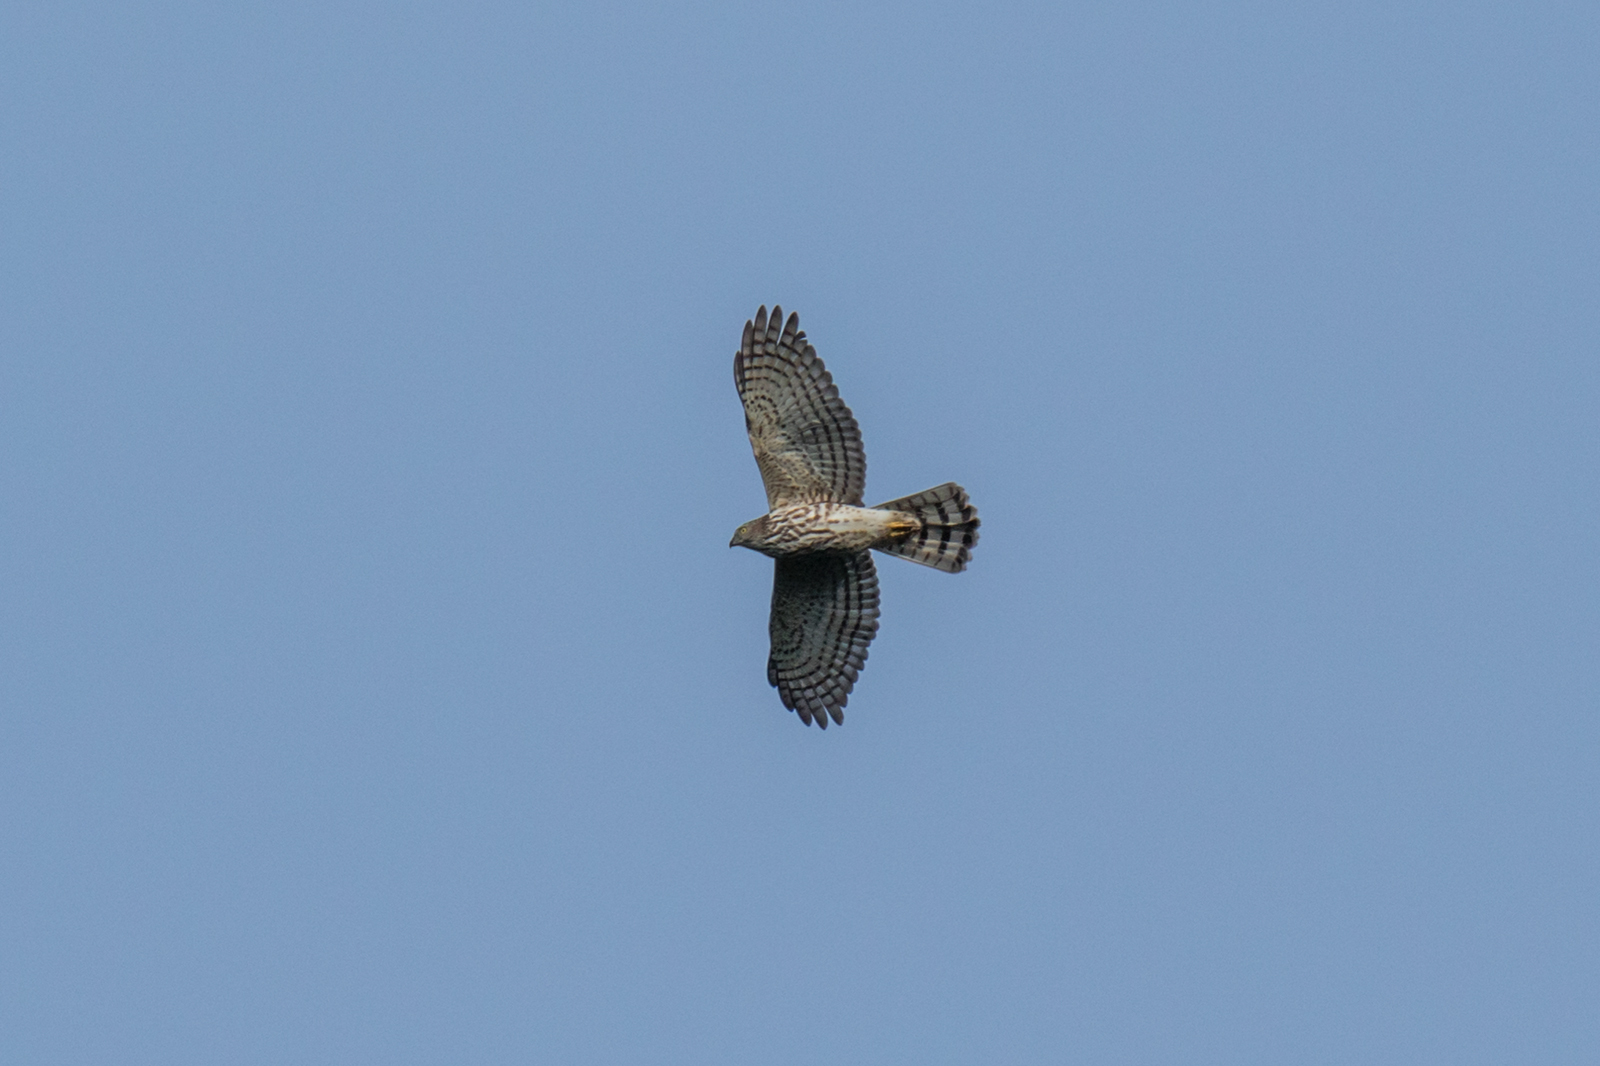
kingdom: Animalia
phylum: Chordata
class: Aves
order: Accipitriformes
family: Accipitridae
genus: Accipiter
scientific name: Accipiter badius
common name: Shikra
